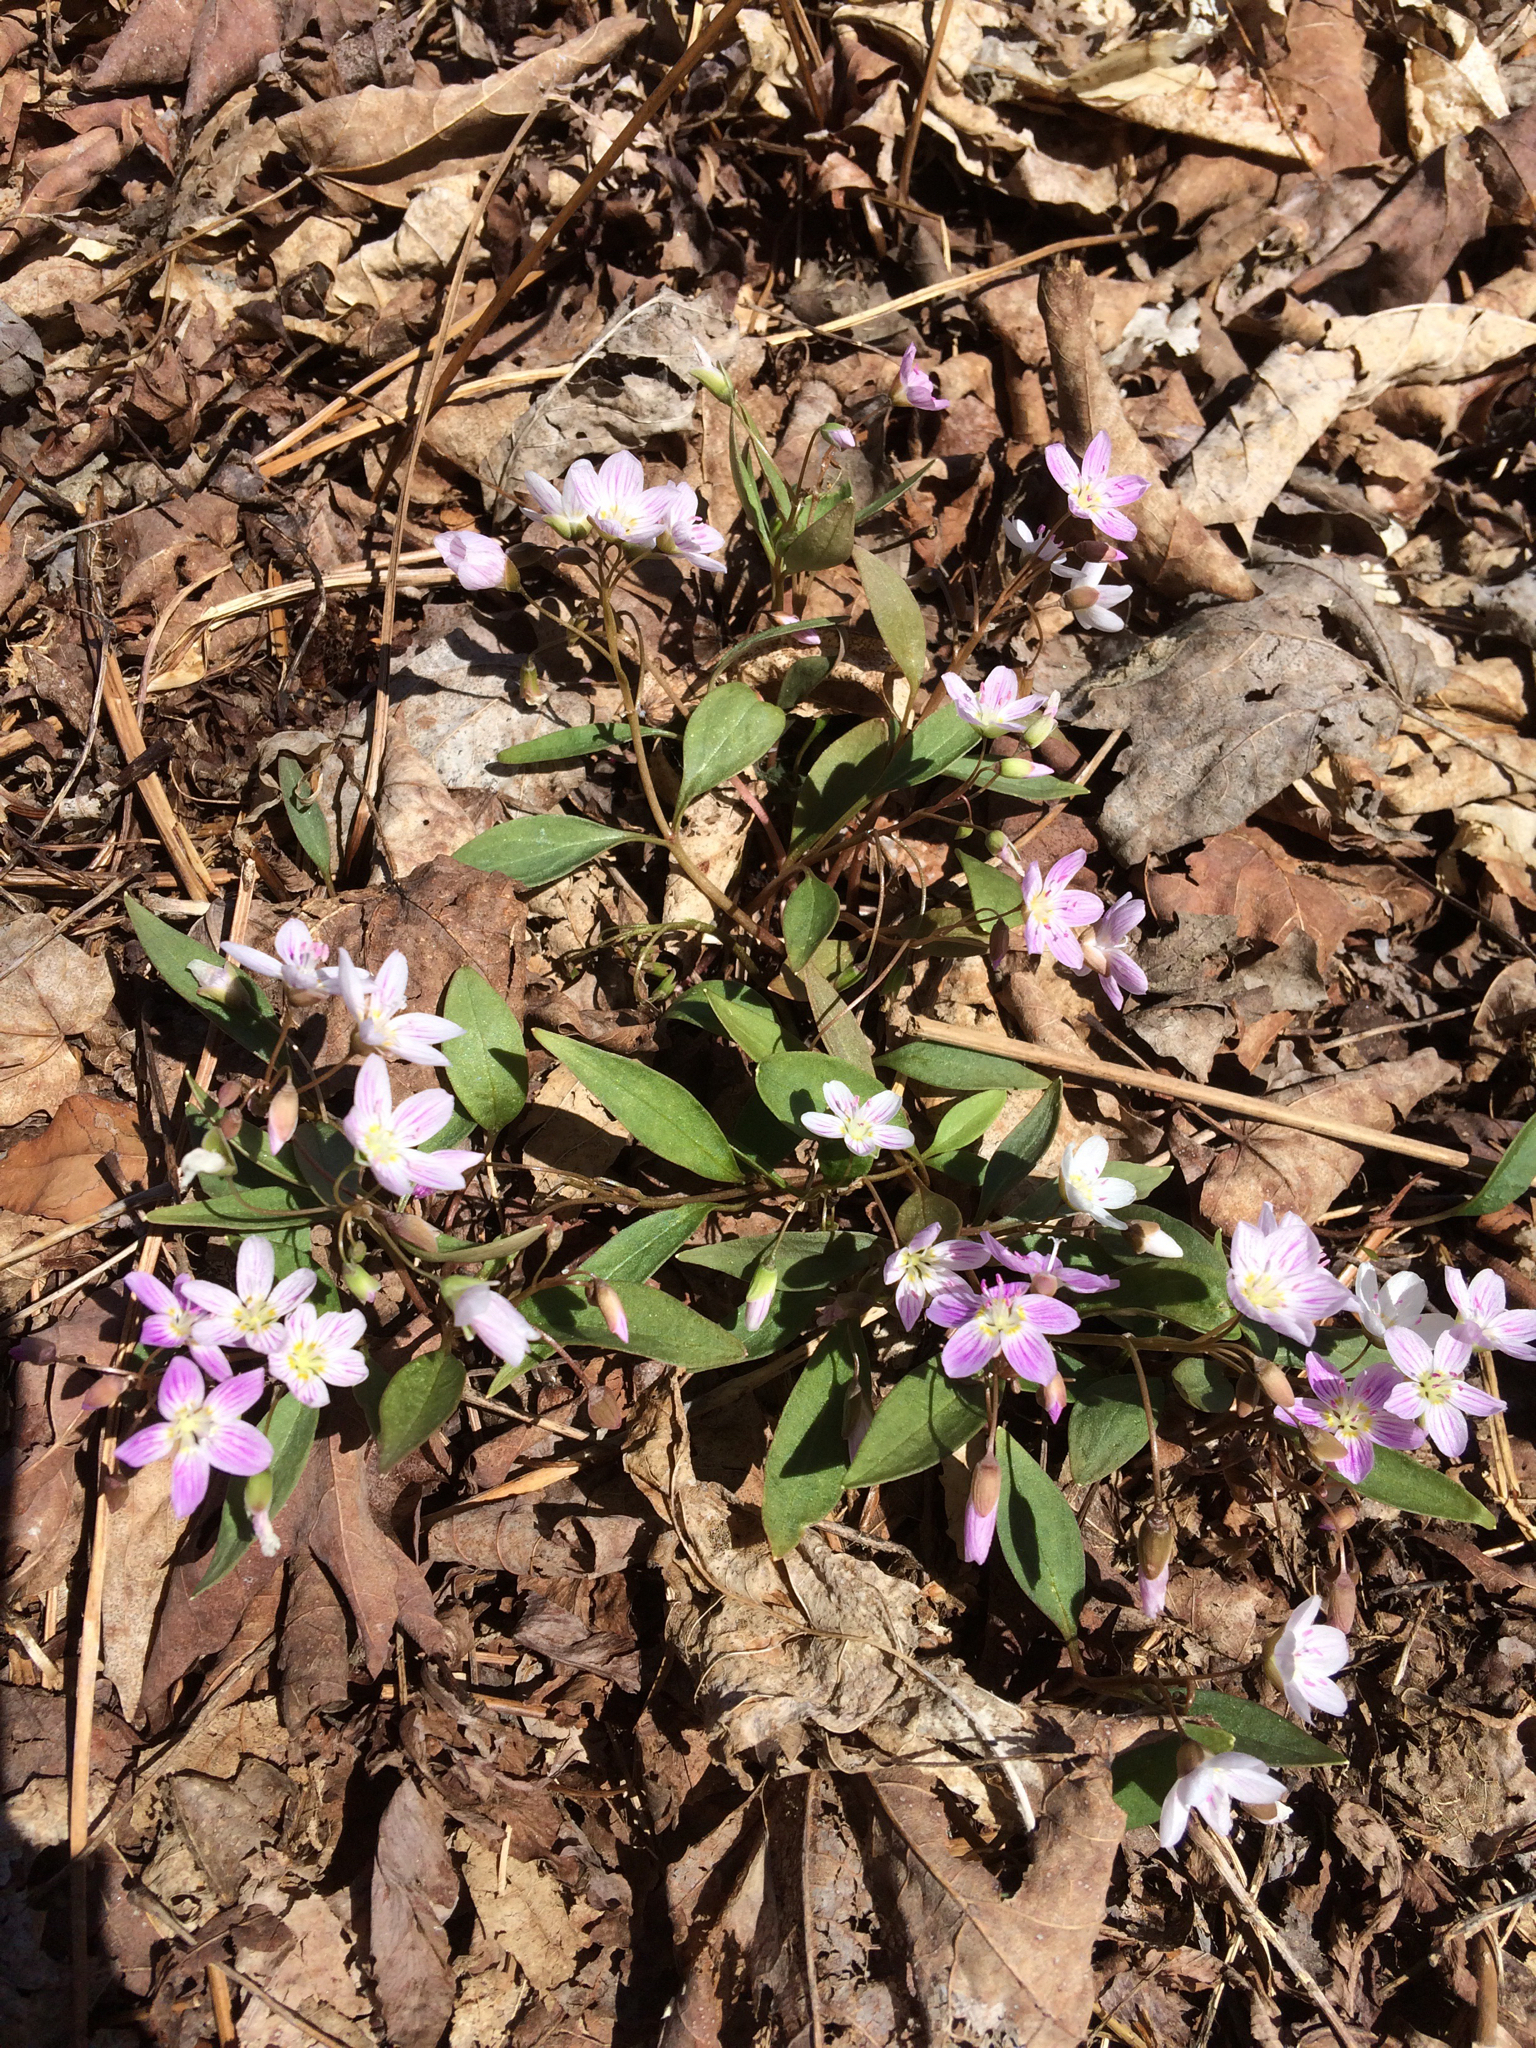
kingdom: Plantae
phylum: Tracheophyta
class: Magnoliopsida
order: Caryophyllales
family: Montiaceae
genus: Claytonia
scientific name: Claytonia caroliniana
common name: Carolina spring beauty
